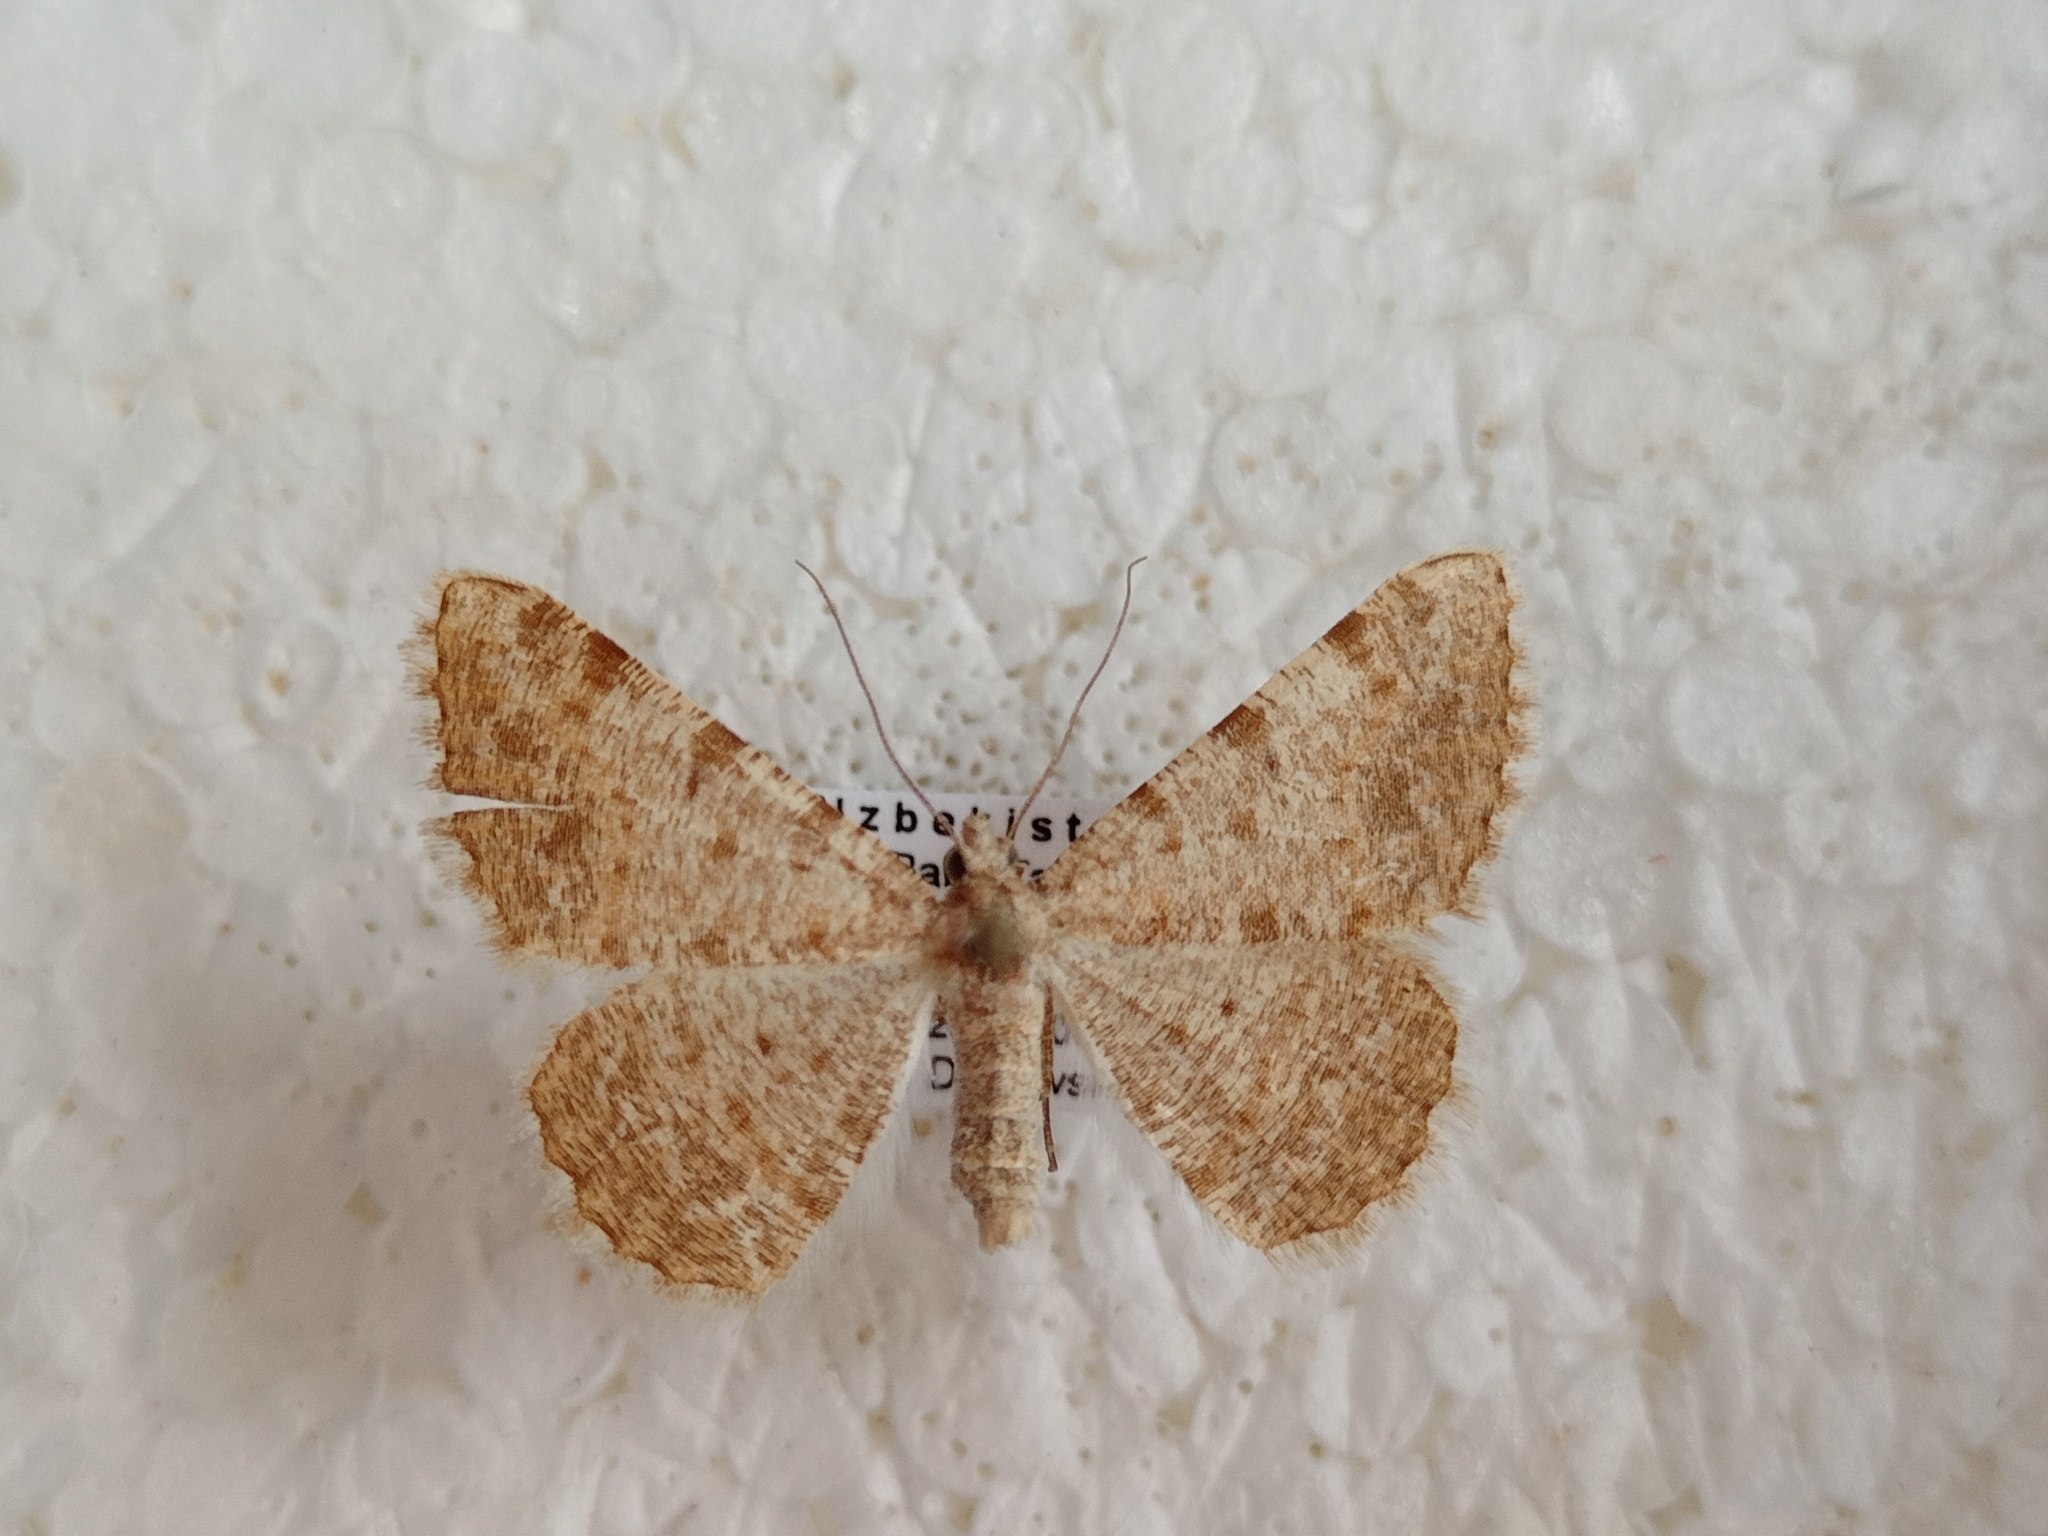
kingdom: Animalia
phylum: Arthropoda
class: Insecta
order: Lepidoptera
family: Geometridae
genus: Gnopharmia
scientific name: Gnopharmia colchidaria
